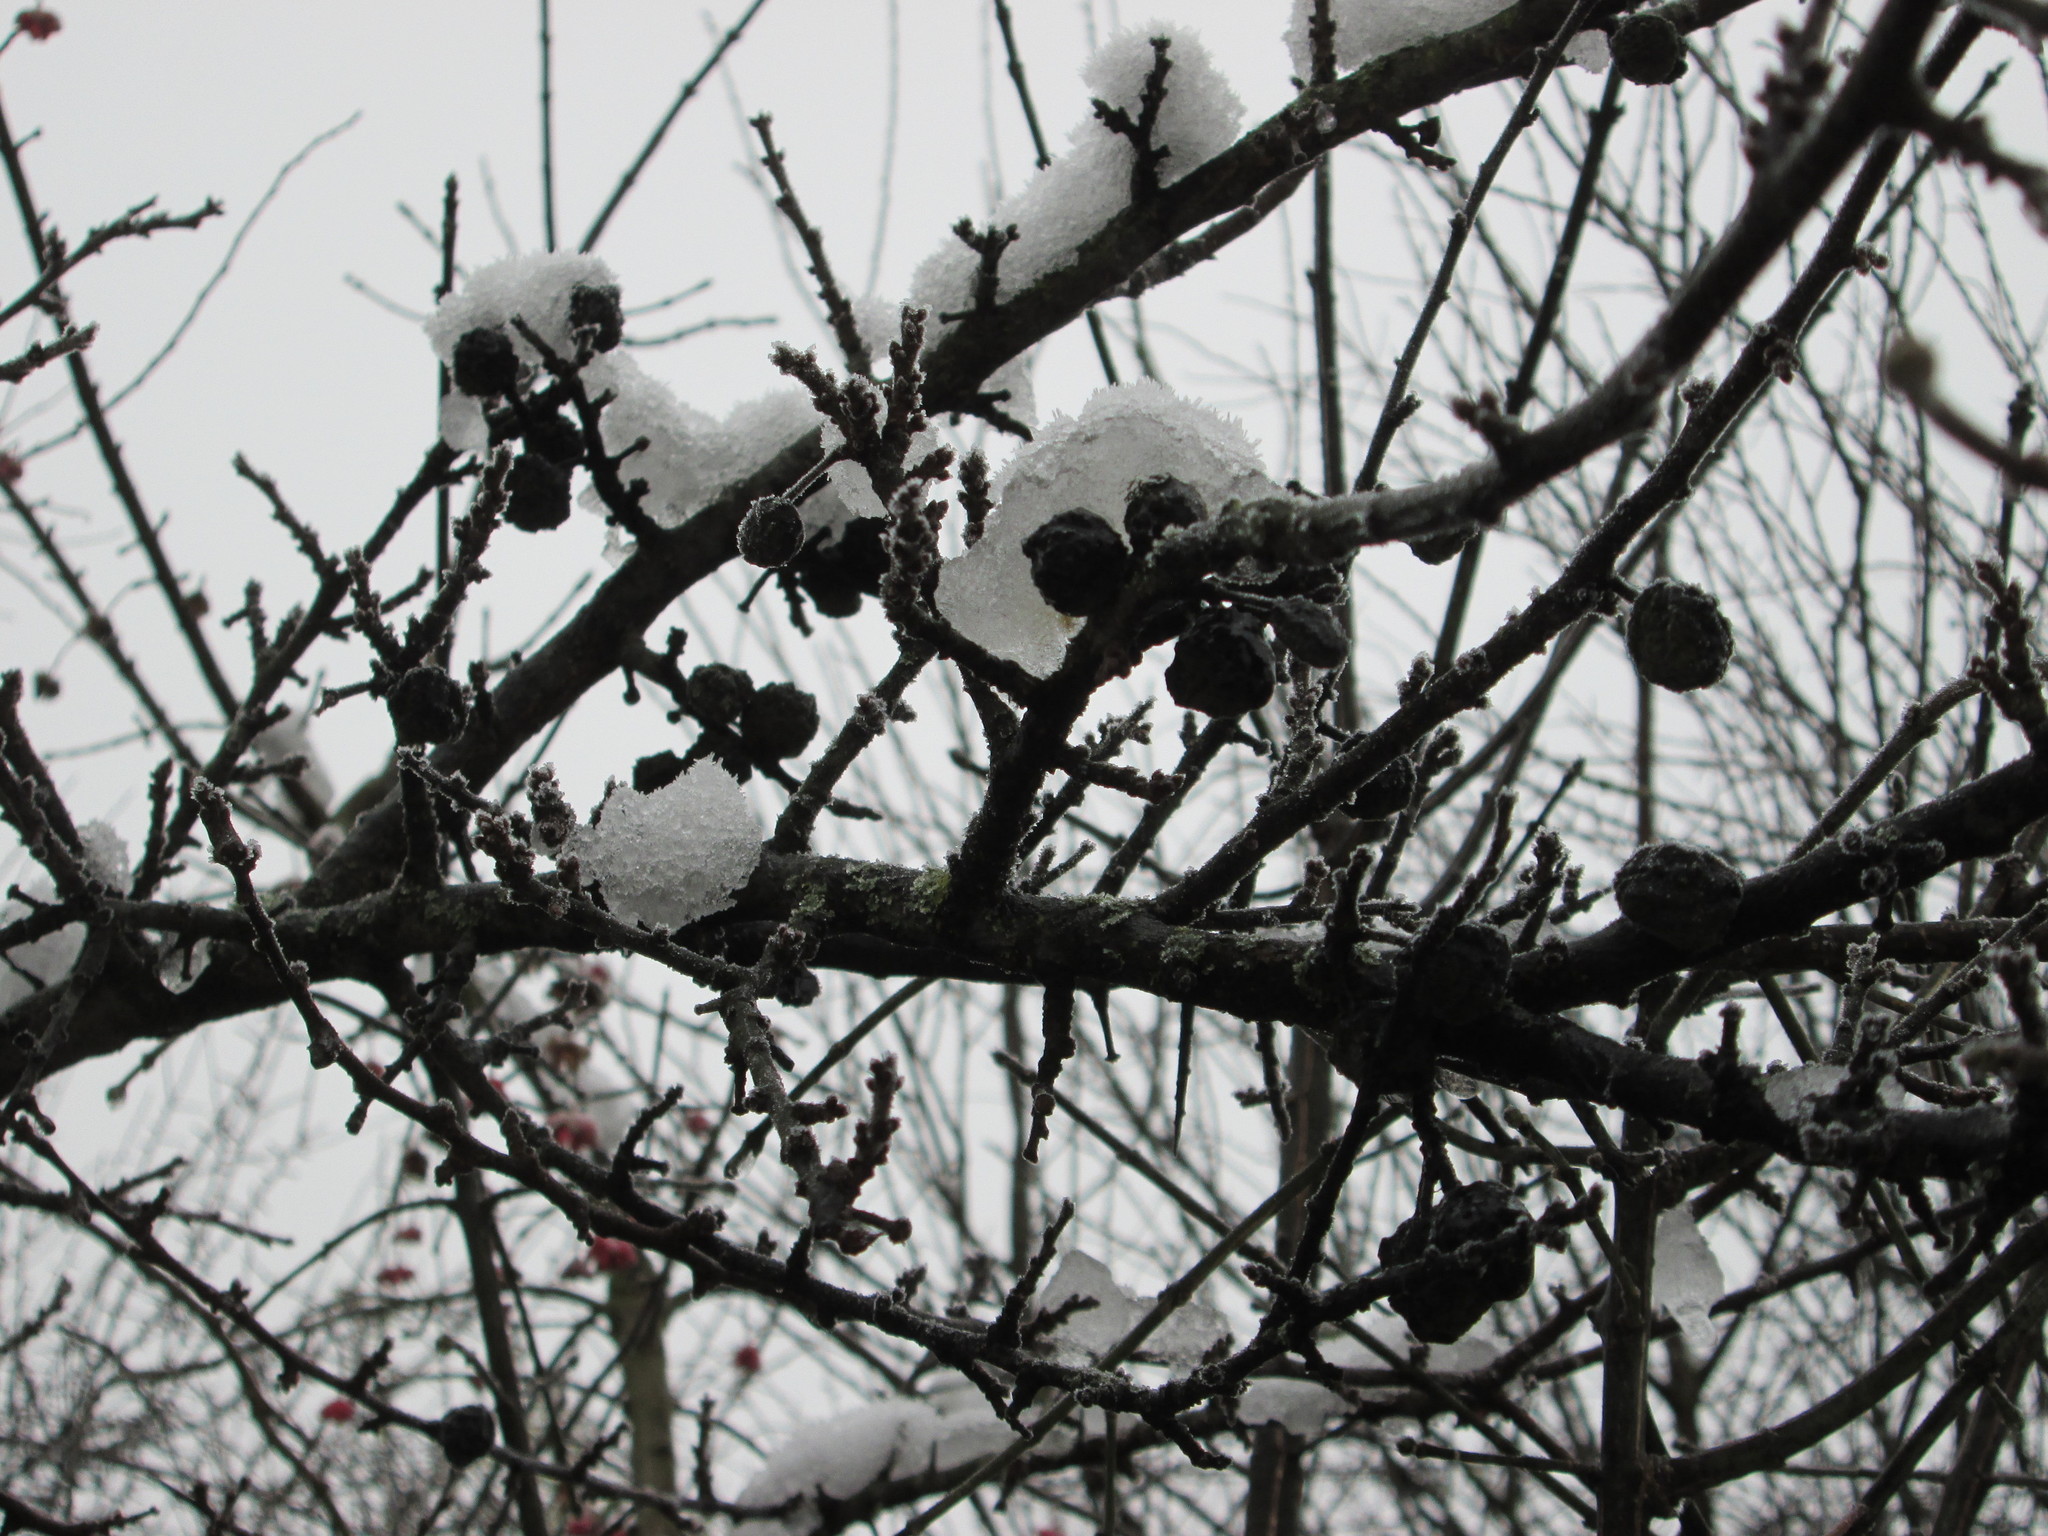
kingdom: Plantae
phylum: Tracheophyta
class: Magnoliopsida
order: Rosales
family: Rosaceae
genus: Prunus
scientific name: Prunus spinosa
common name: Blackthorn
